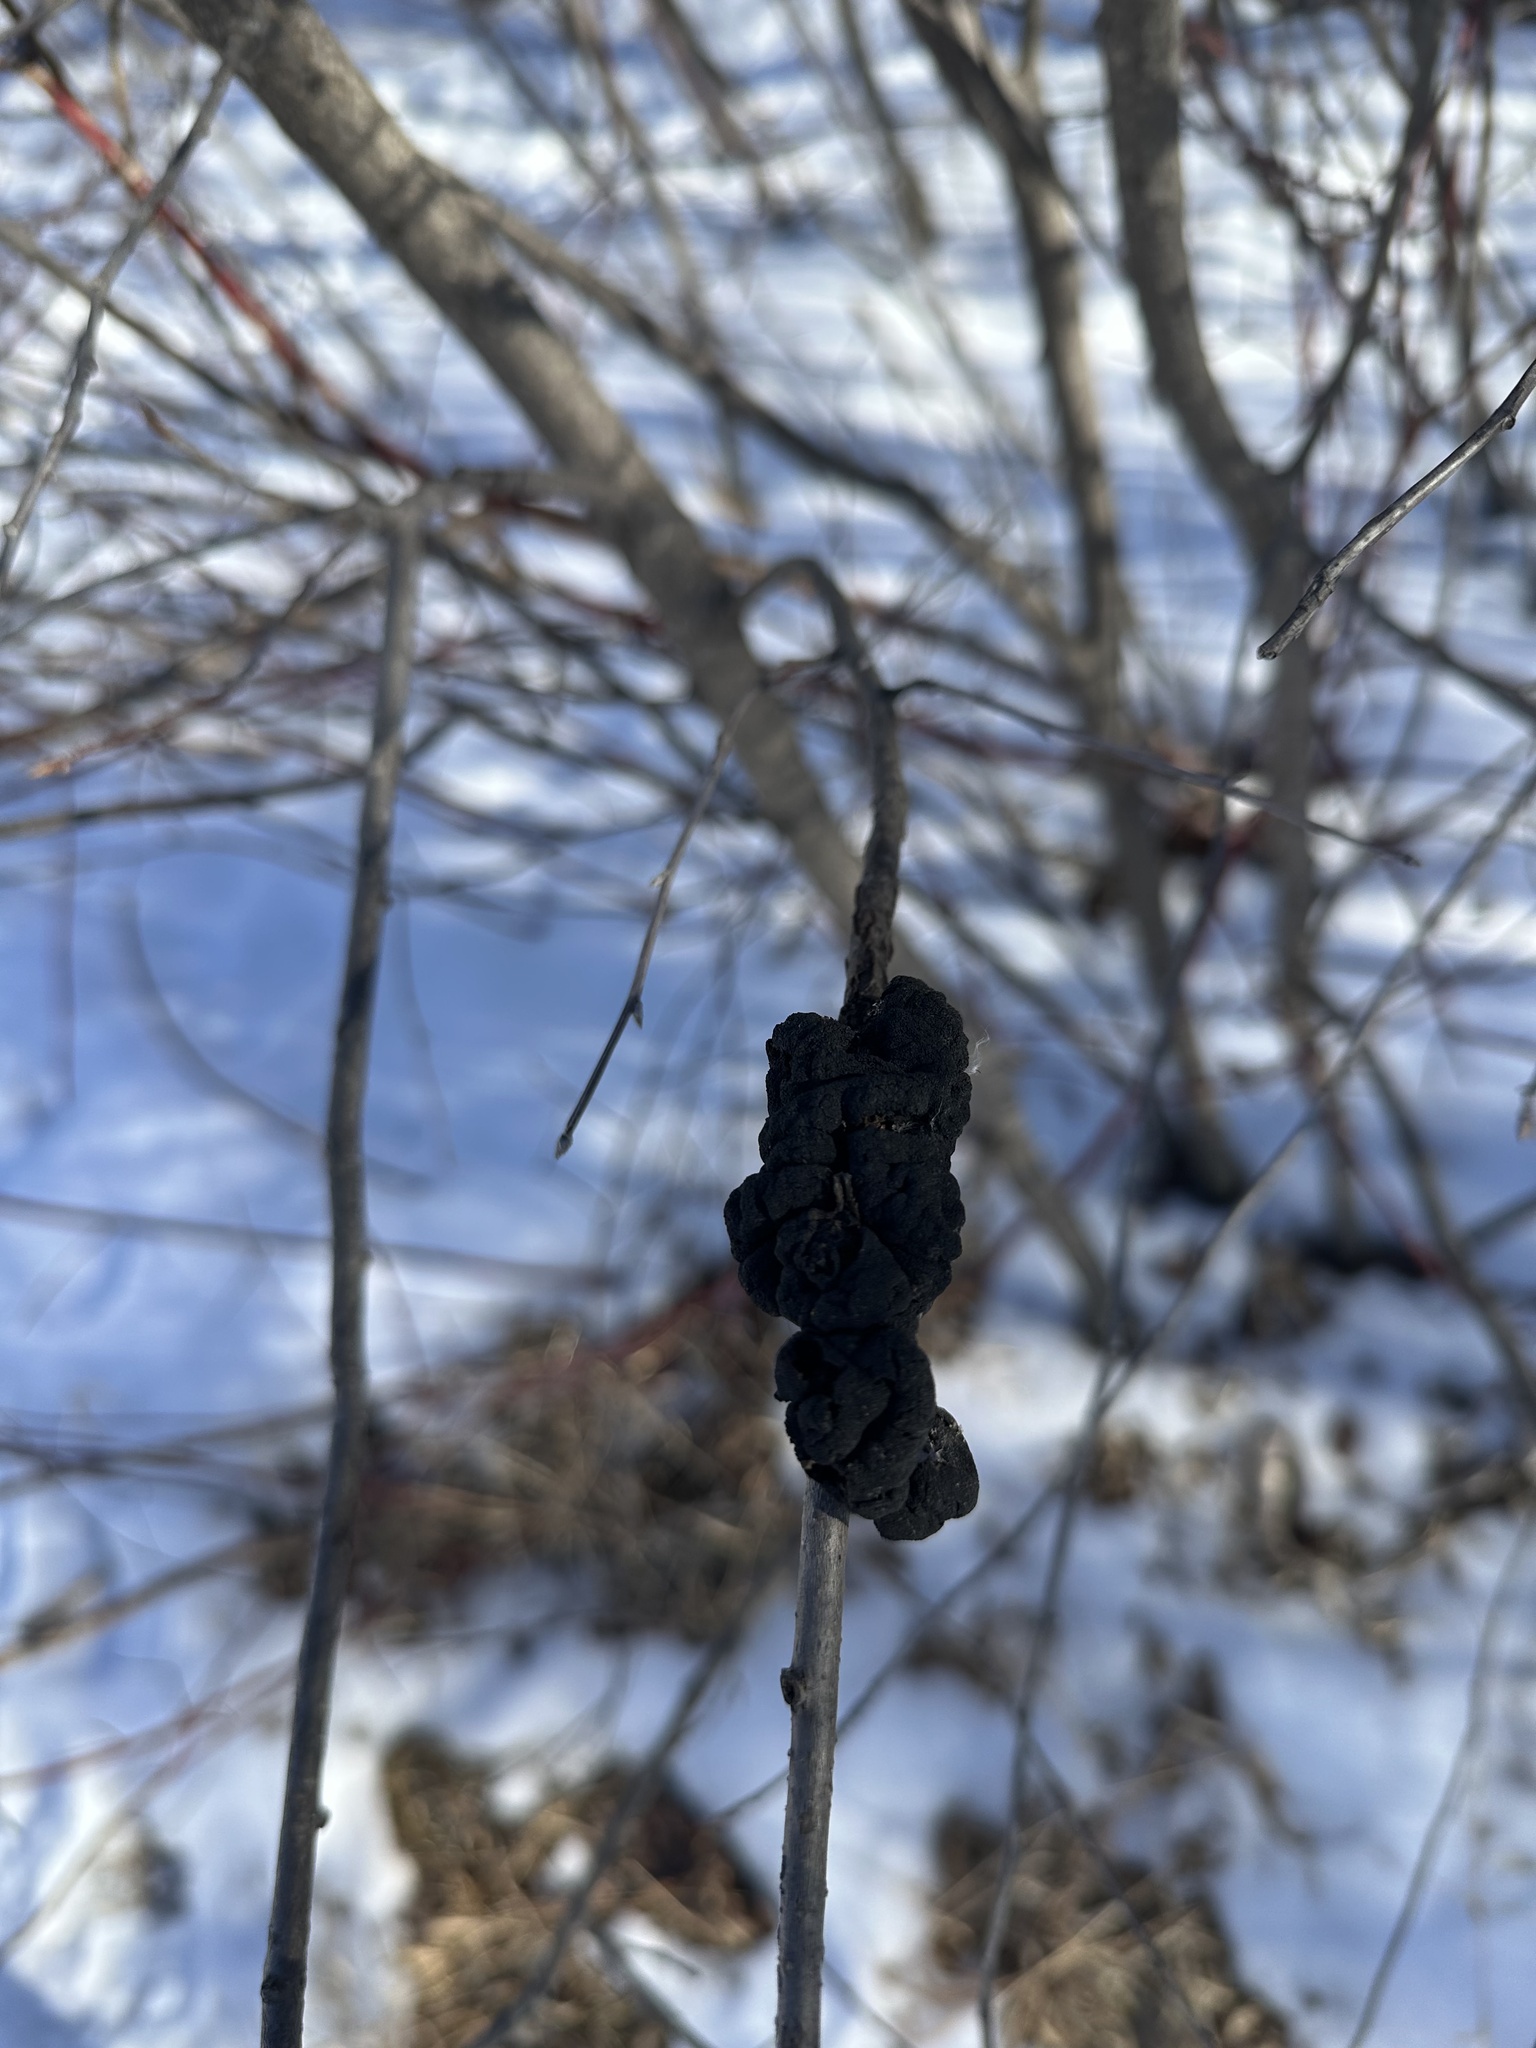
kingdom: Fungi
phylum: Ascomycota
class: Dothideomycetes
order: Venturiales
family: Venturiaceae
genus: Apiosporina
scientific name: Apiosporina morbosa
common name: Black knot
